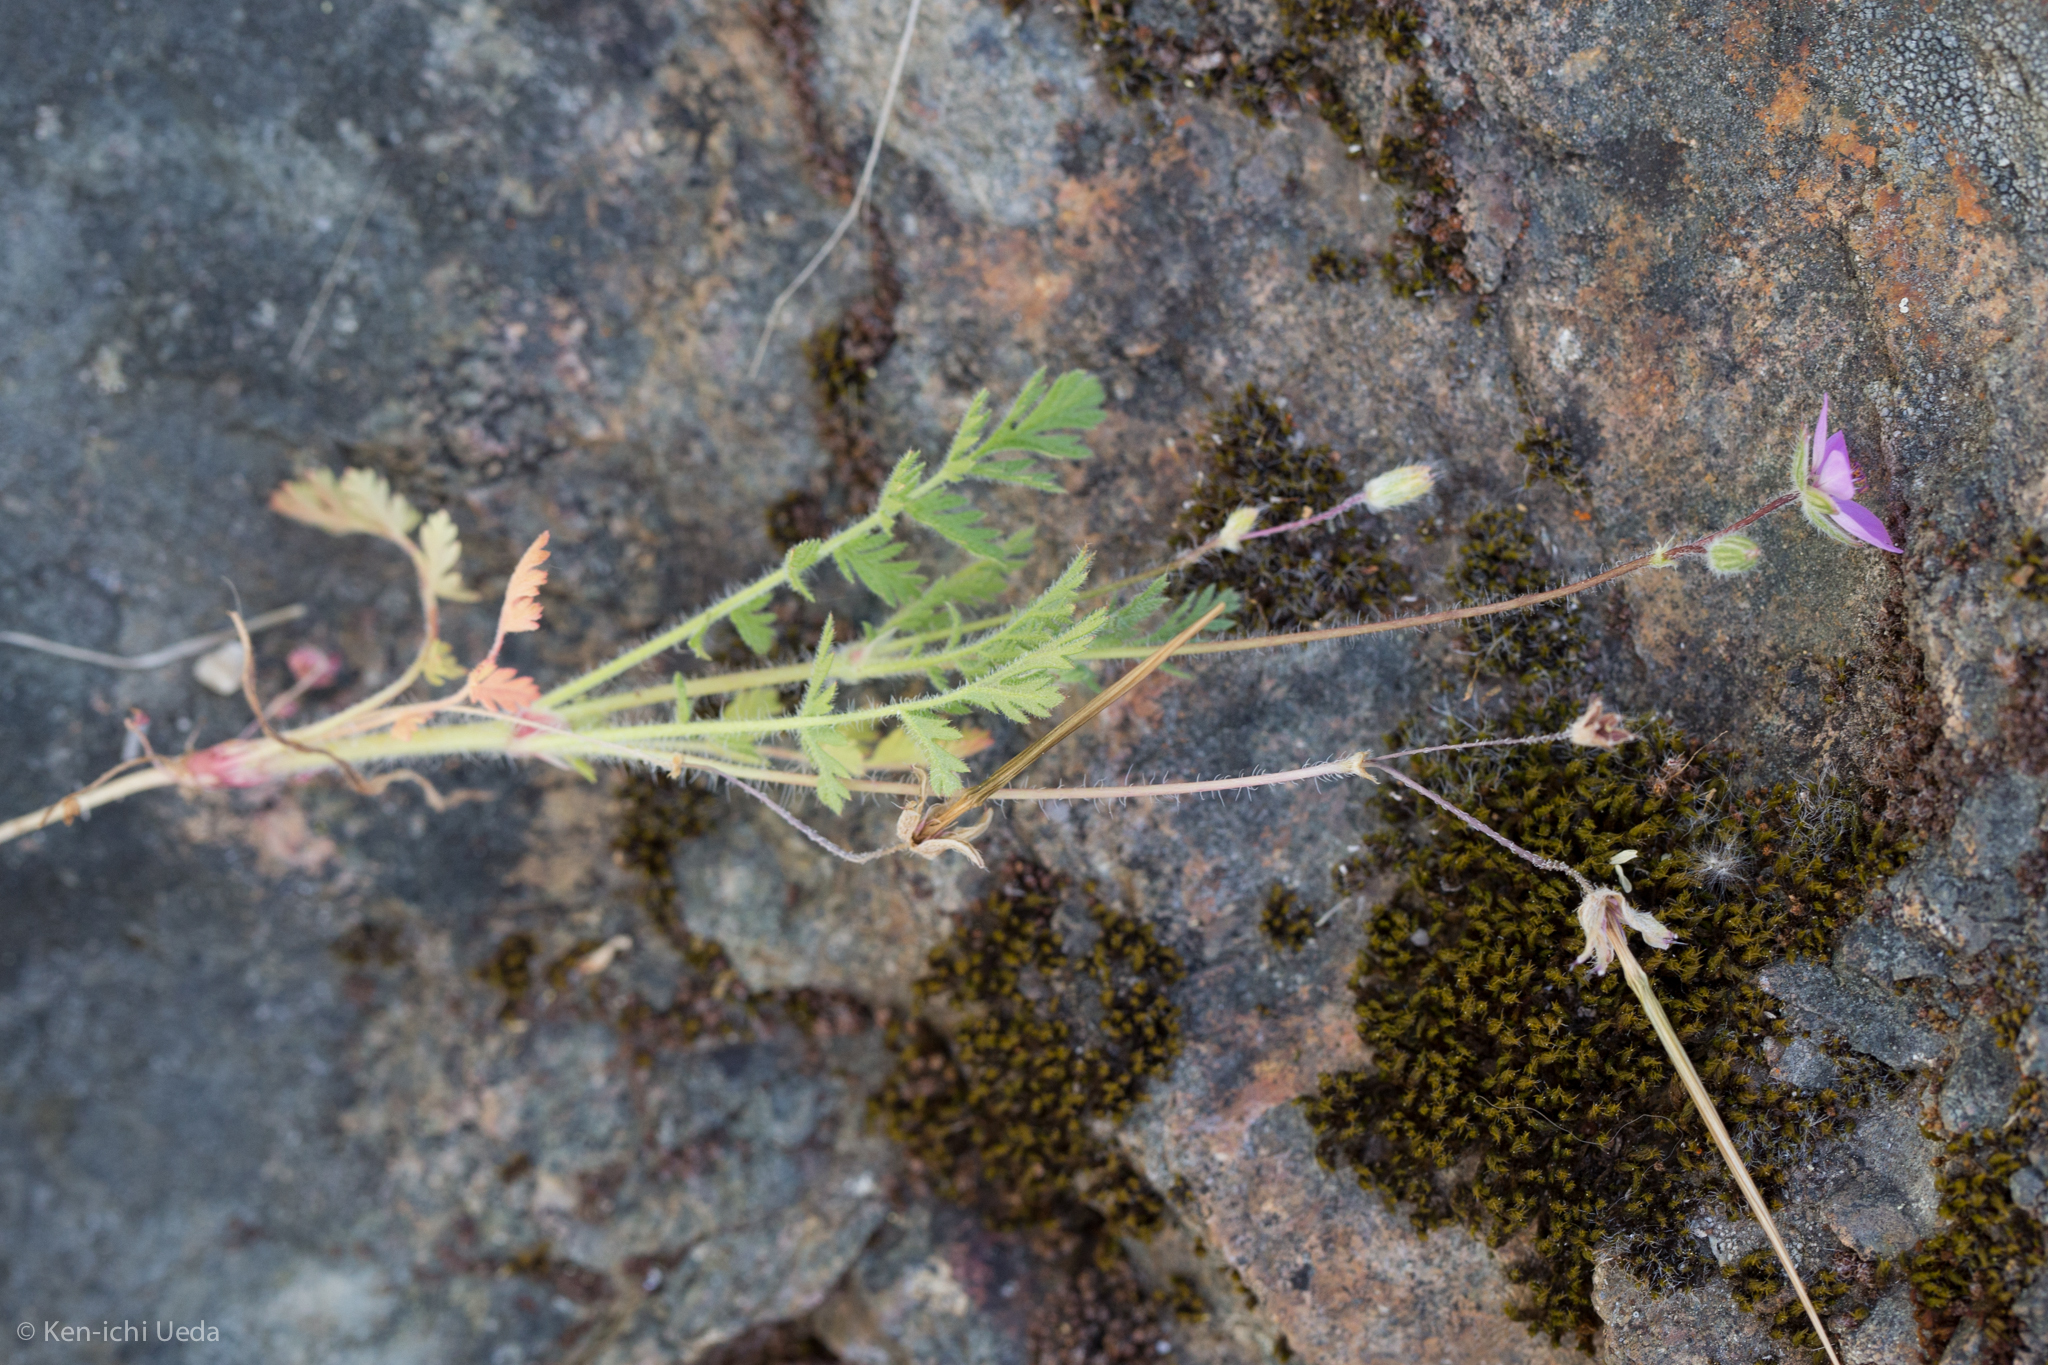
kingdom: Plantae
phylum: Tracheophyta
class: Magnoliopsida
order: Geraniales
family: Geraniaceae
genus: Erodium
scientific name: Erodium cicutarium
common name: Common stork's-bill
